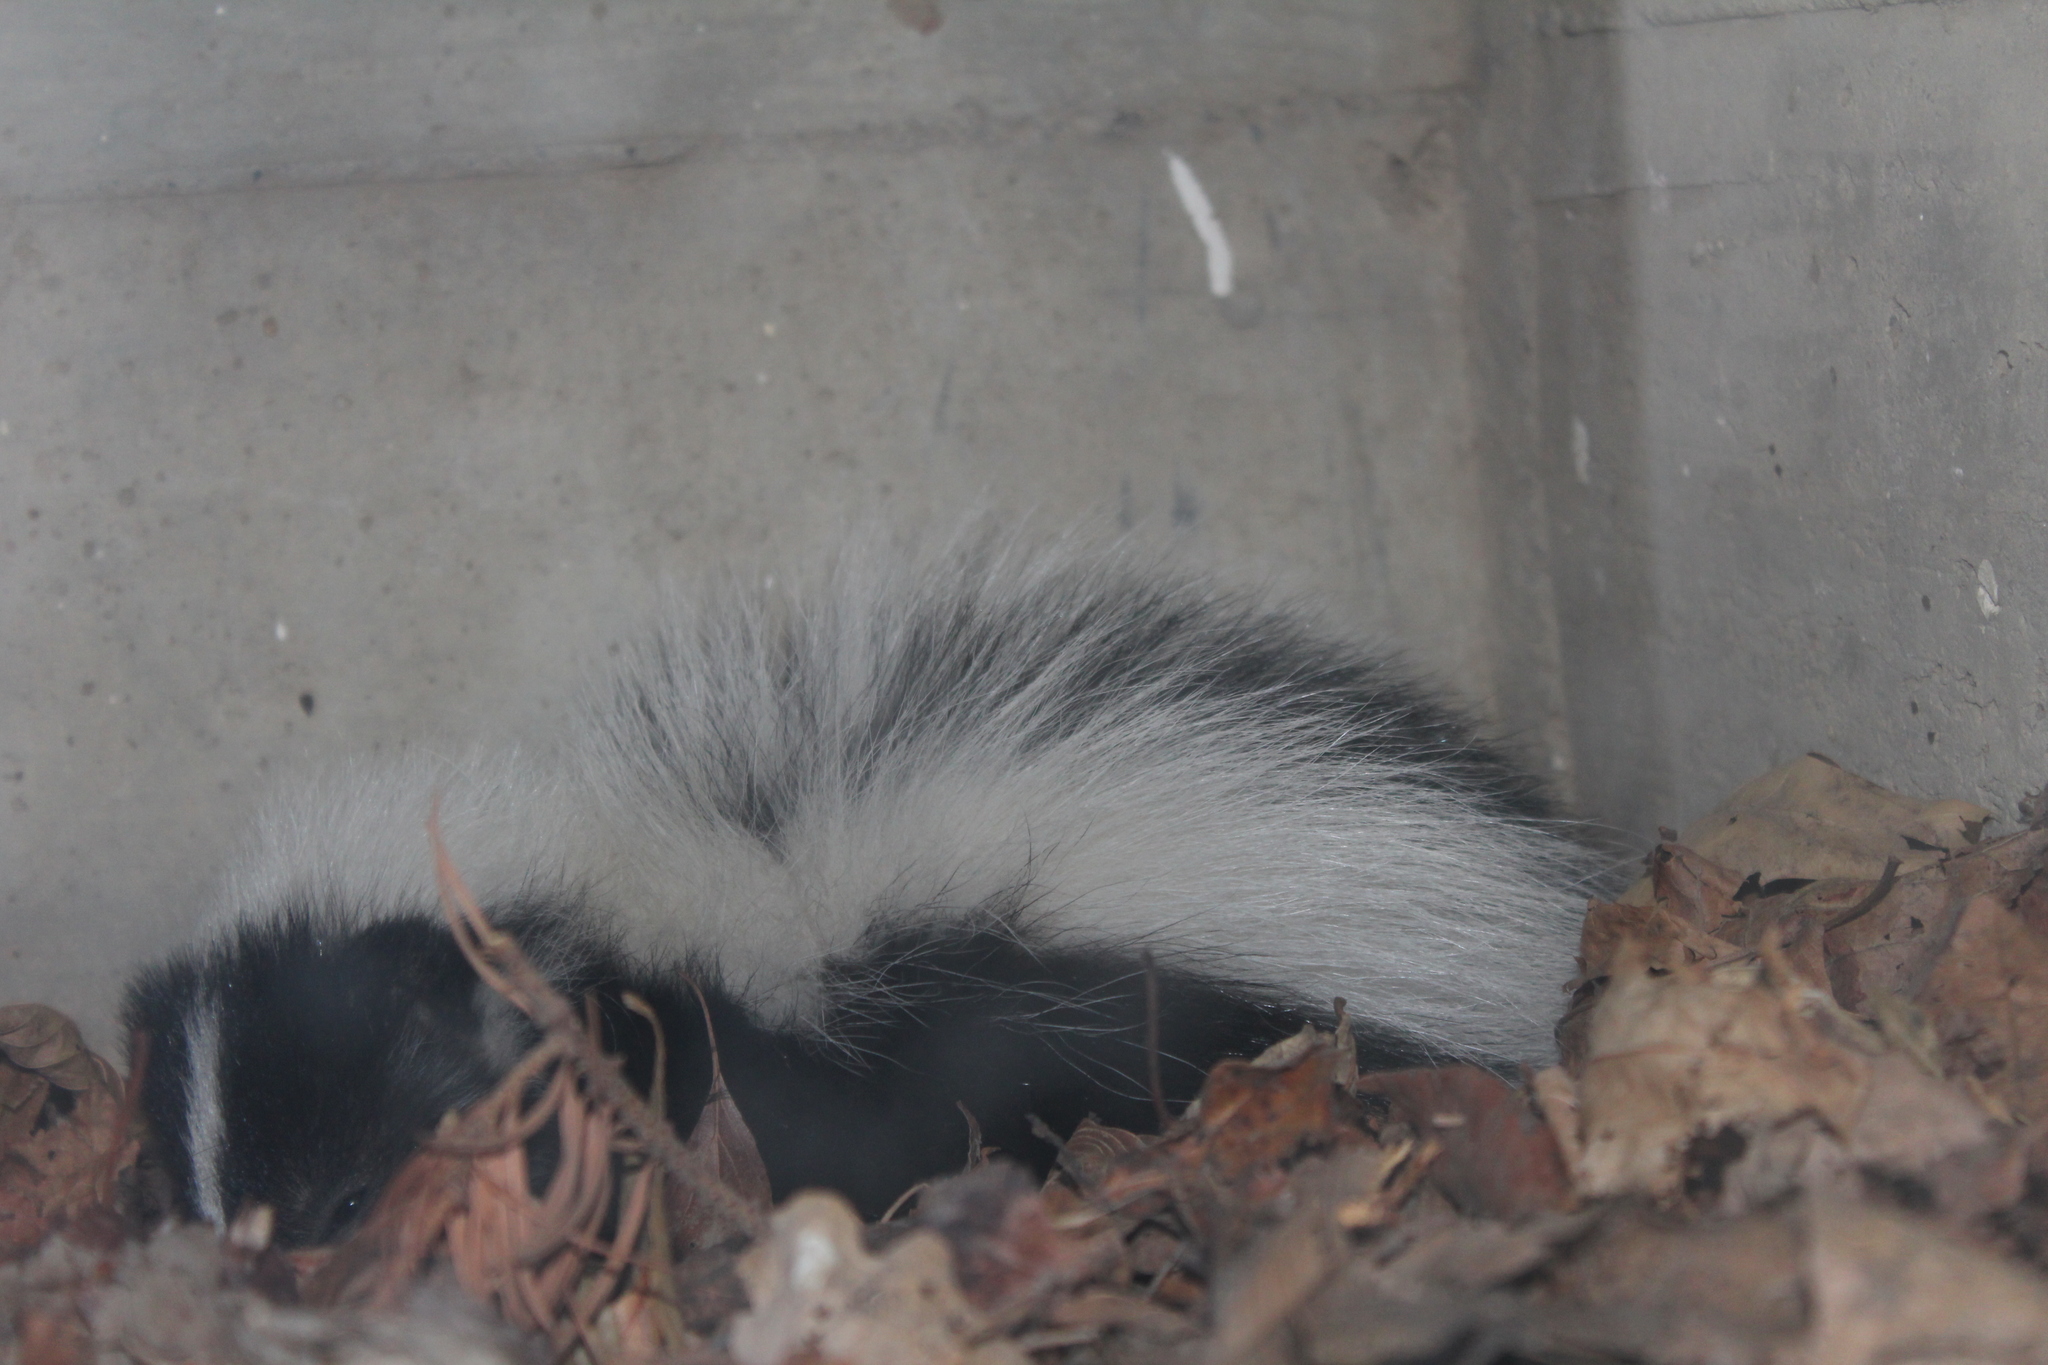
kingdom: Animalia
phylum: Chordata
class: Mammalia
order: Carnivora
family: Mephitidae
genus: Mephitis
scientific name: Mephitis mephitis
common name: Striped skunk
